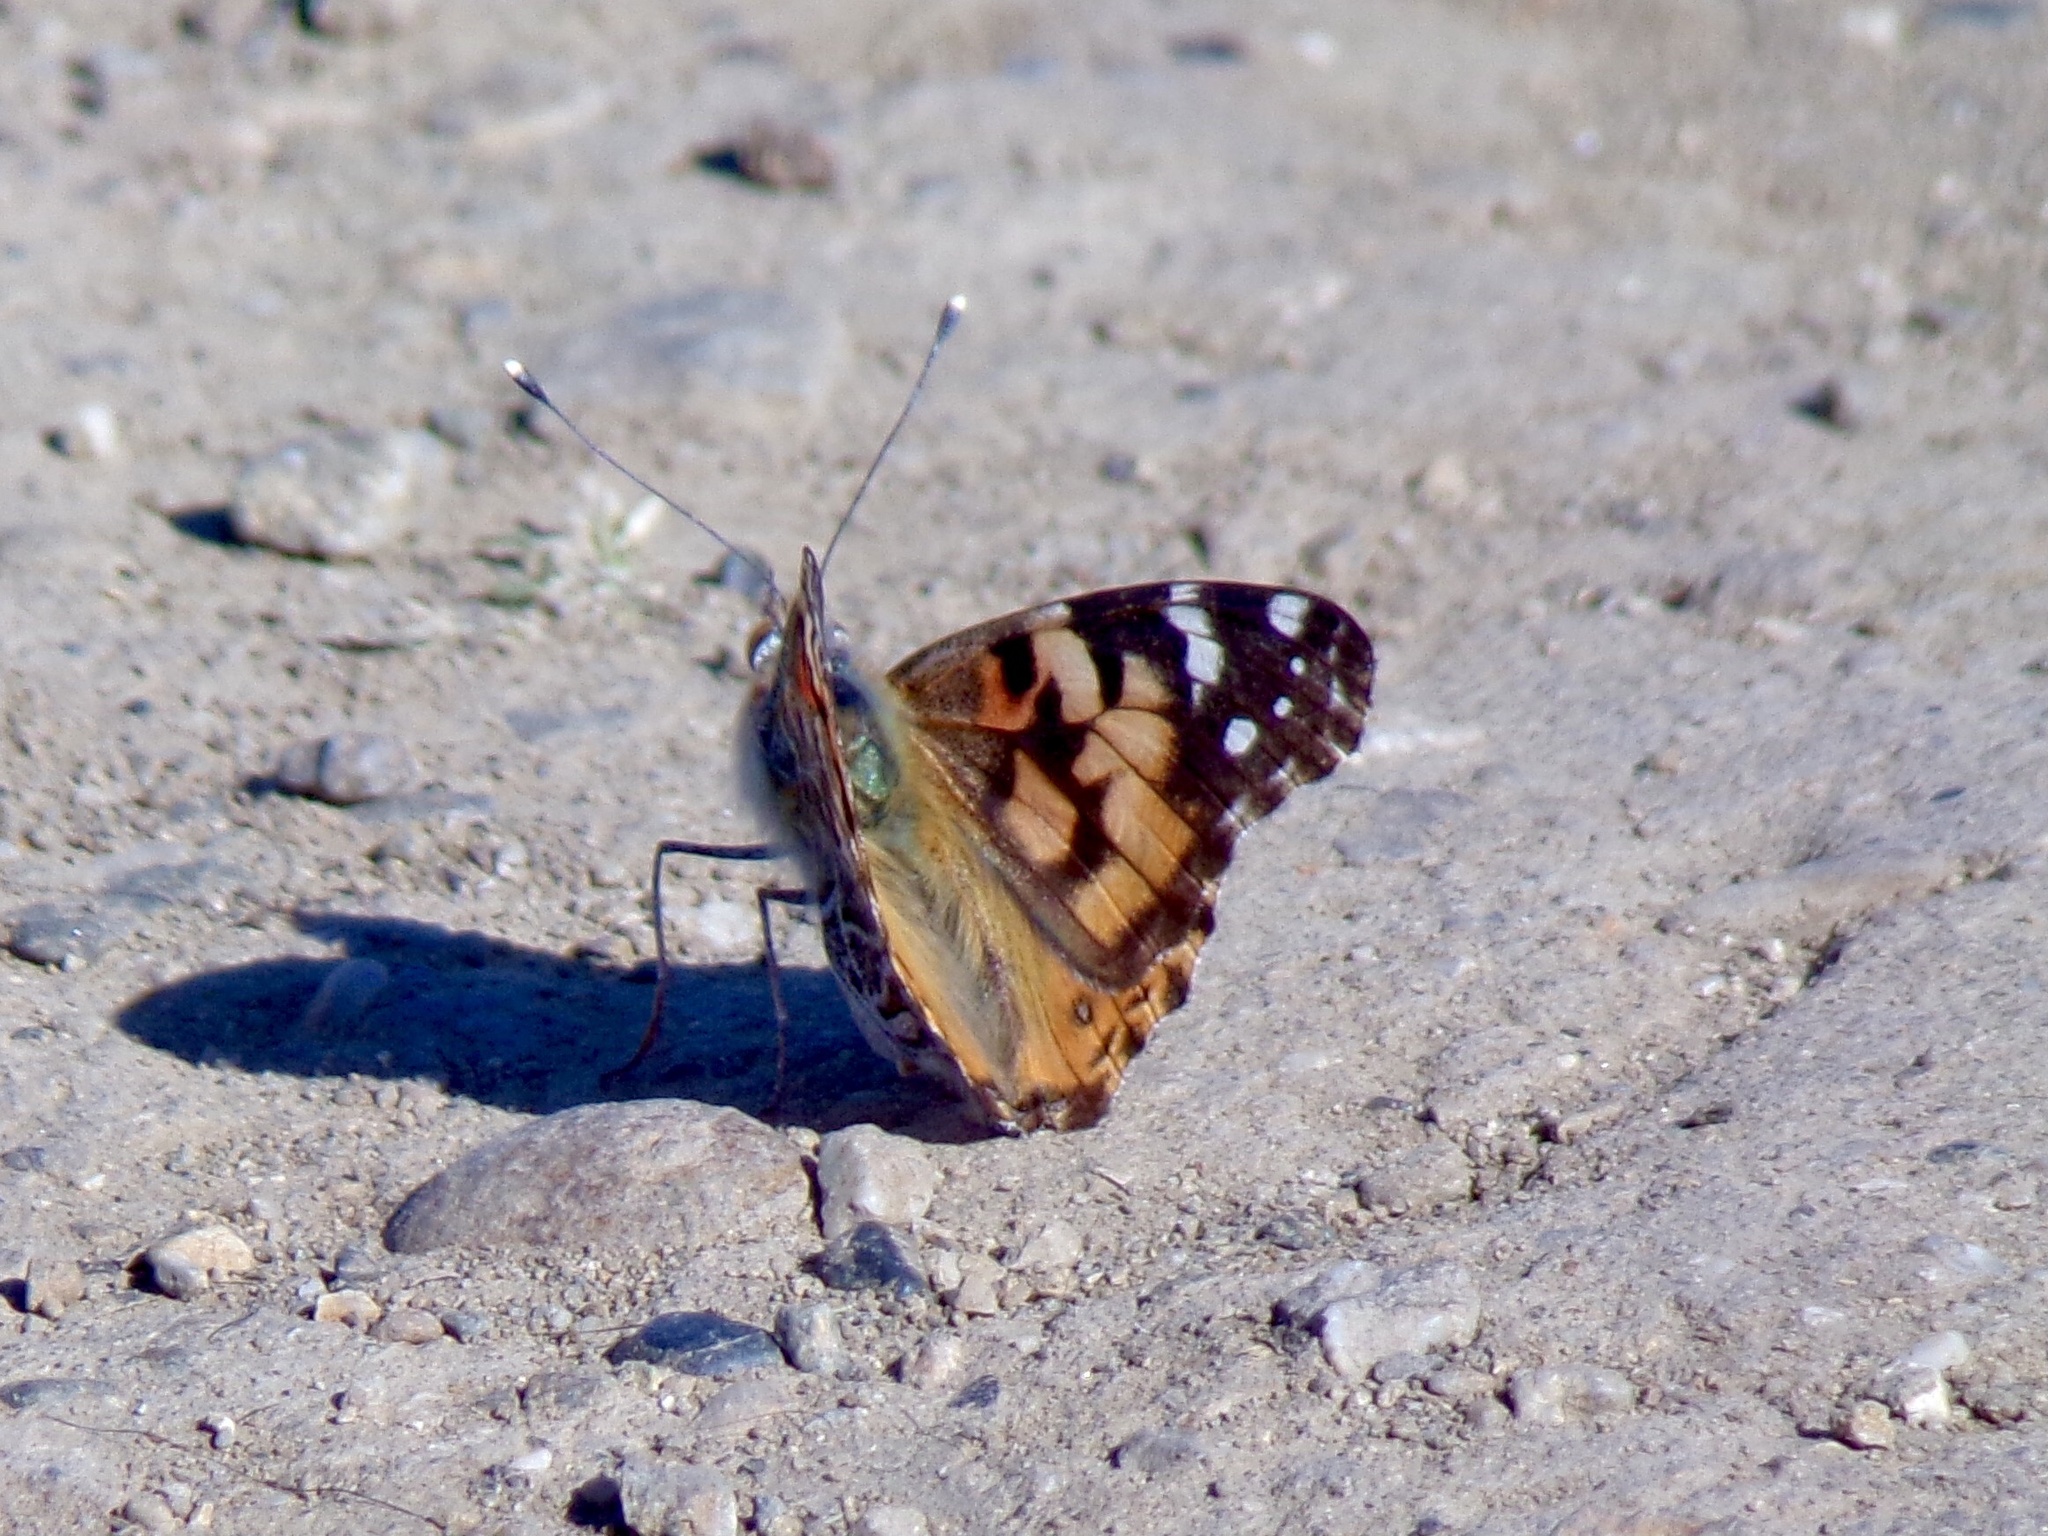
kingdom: Animalia
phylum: Arthropoda
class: Insecta
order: Lepidoptera
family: Nymphalidae
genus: Vanessa
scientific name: Vanessa cardui
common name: Painted lady
